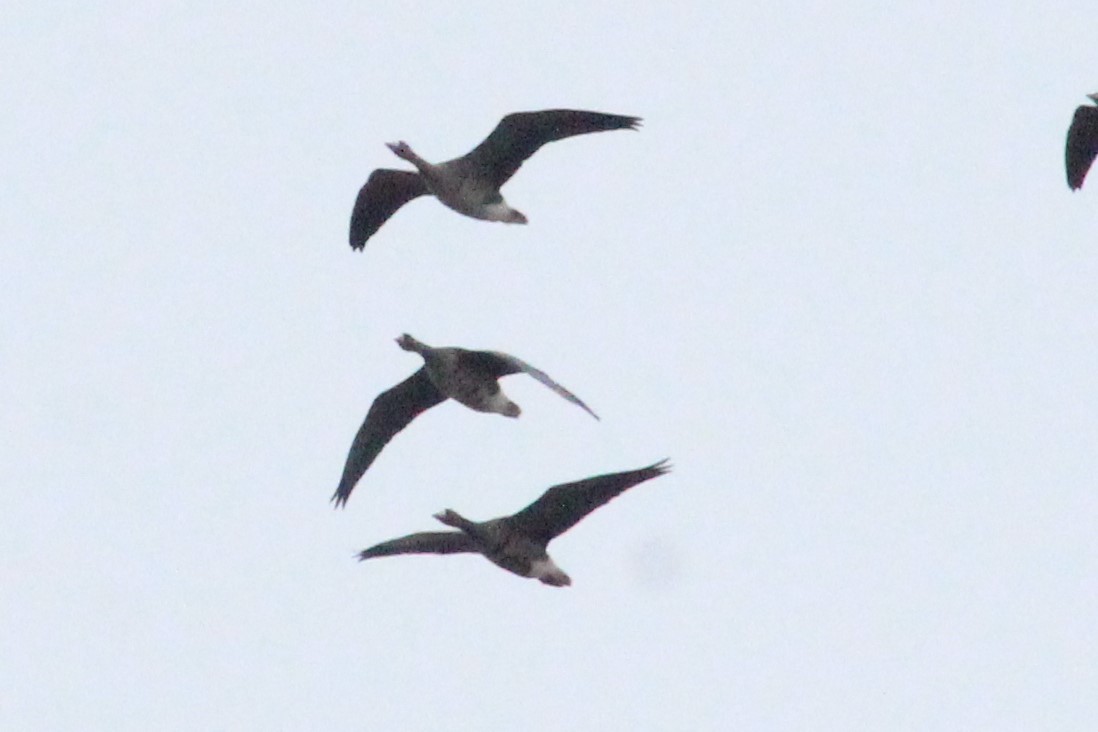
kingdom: Animalia
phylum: Chordata
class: Aves
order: Anseriformes
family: Anatidae
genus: Anser
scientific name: Anser albifrons
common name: Greater white-fronted goose
